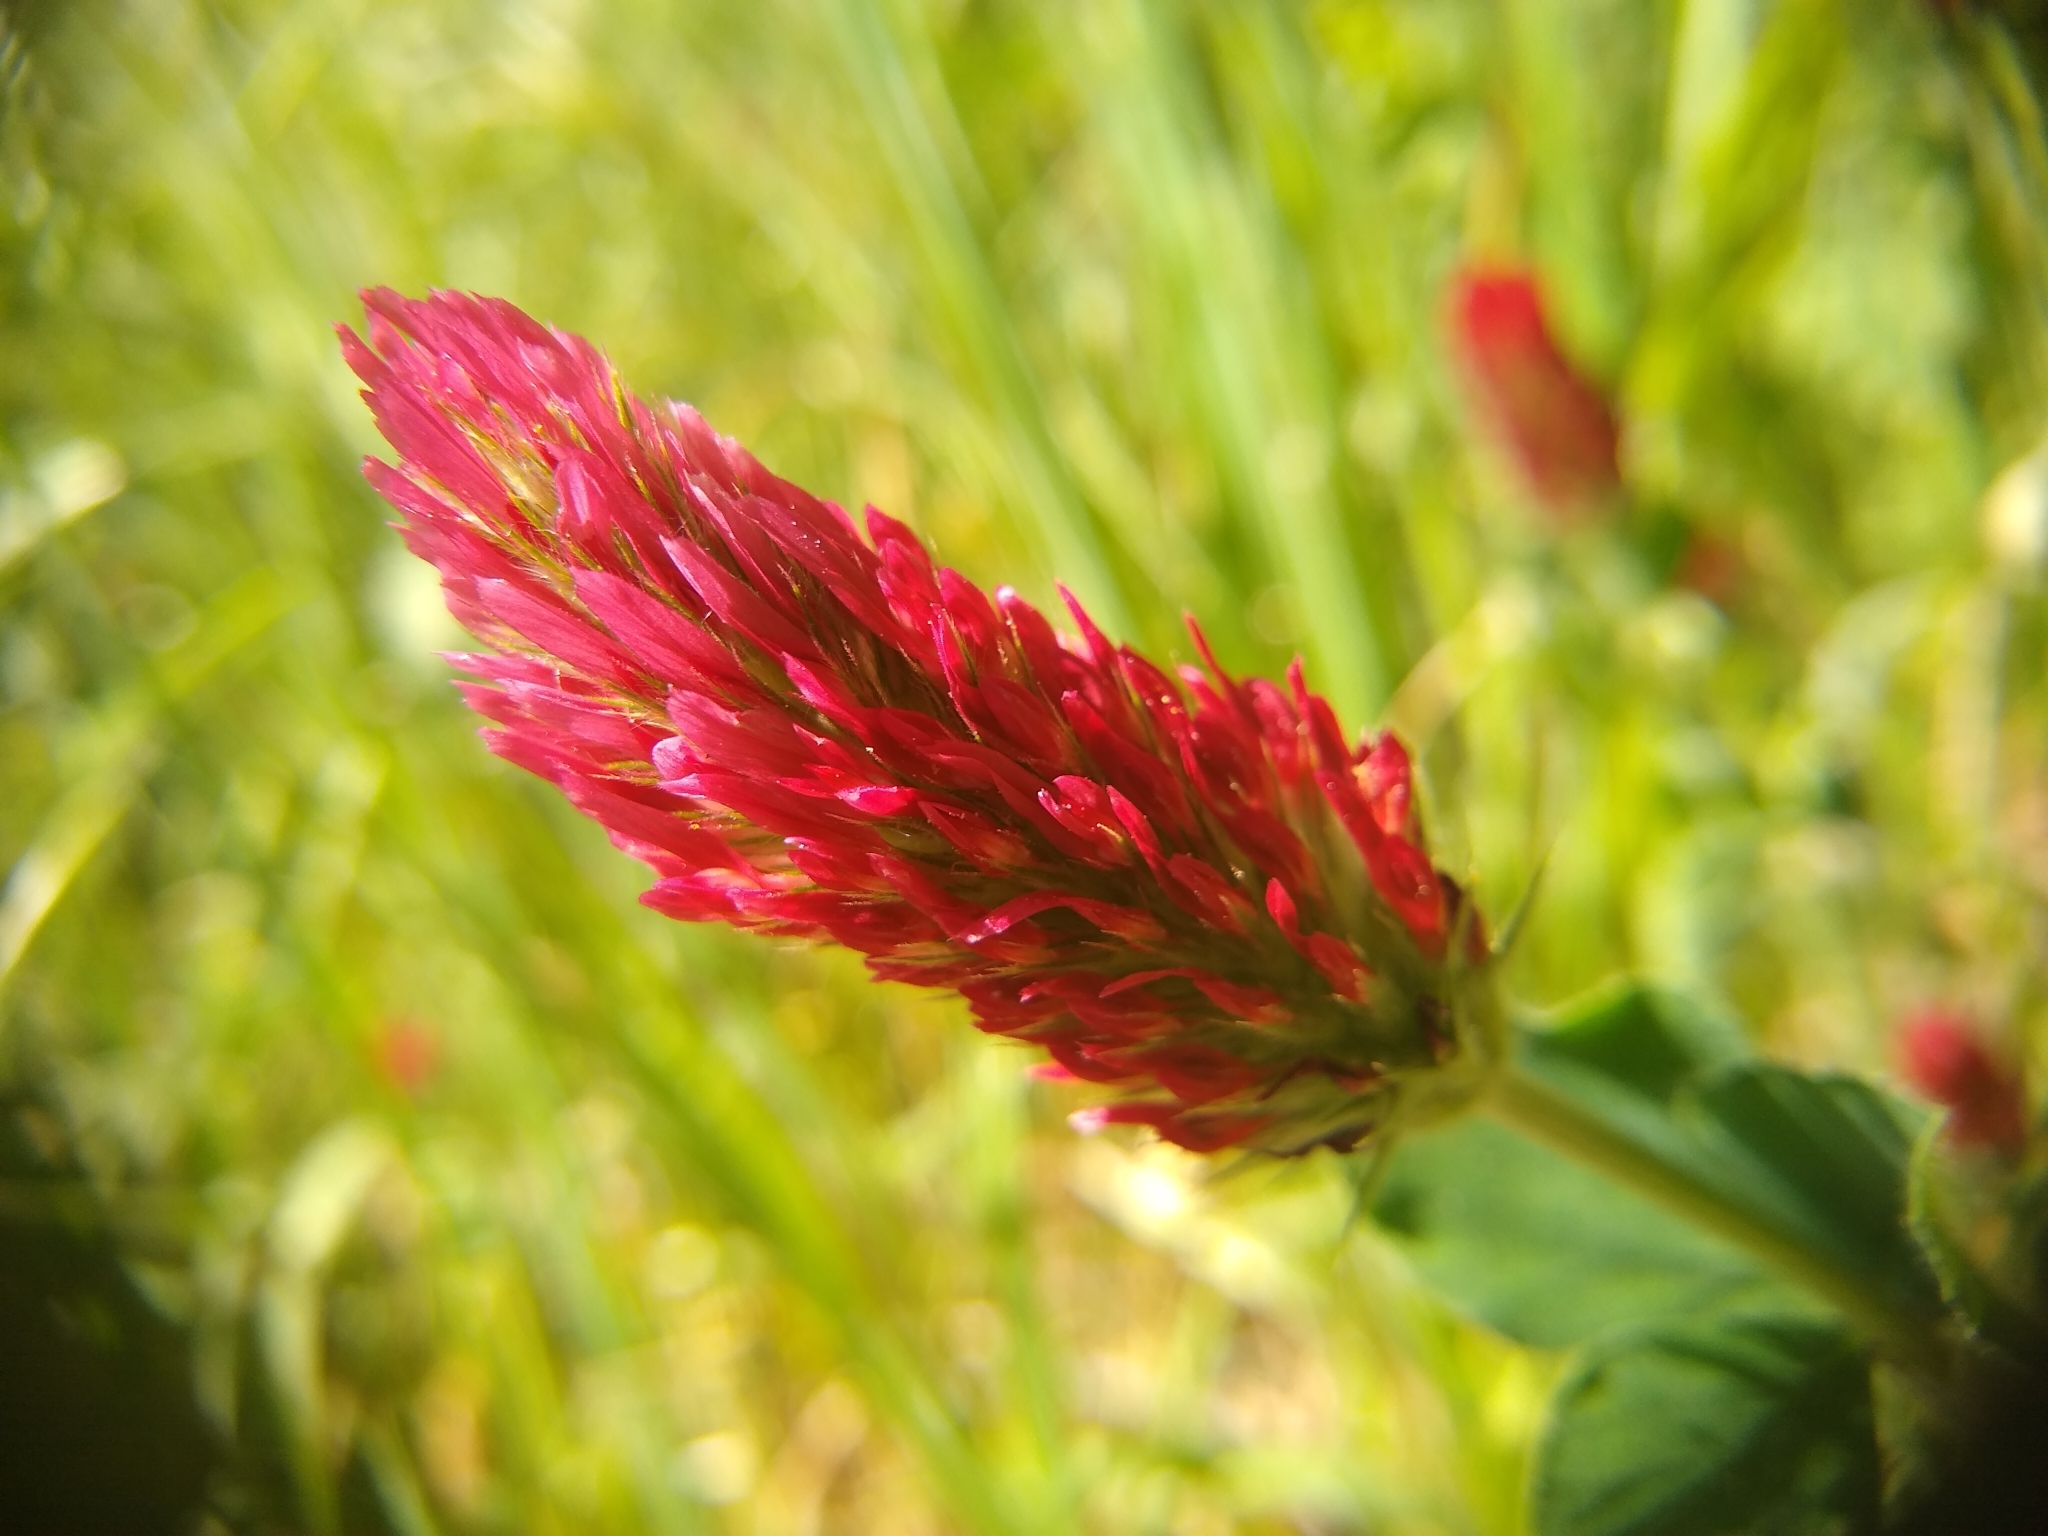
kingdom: Plantae
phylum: Tracheophyta
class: Magnoliopsida
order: Fabales
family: Fabaceae
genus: Trifolium
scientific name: Trifolium incarnatum
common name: Crimson clover
